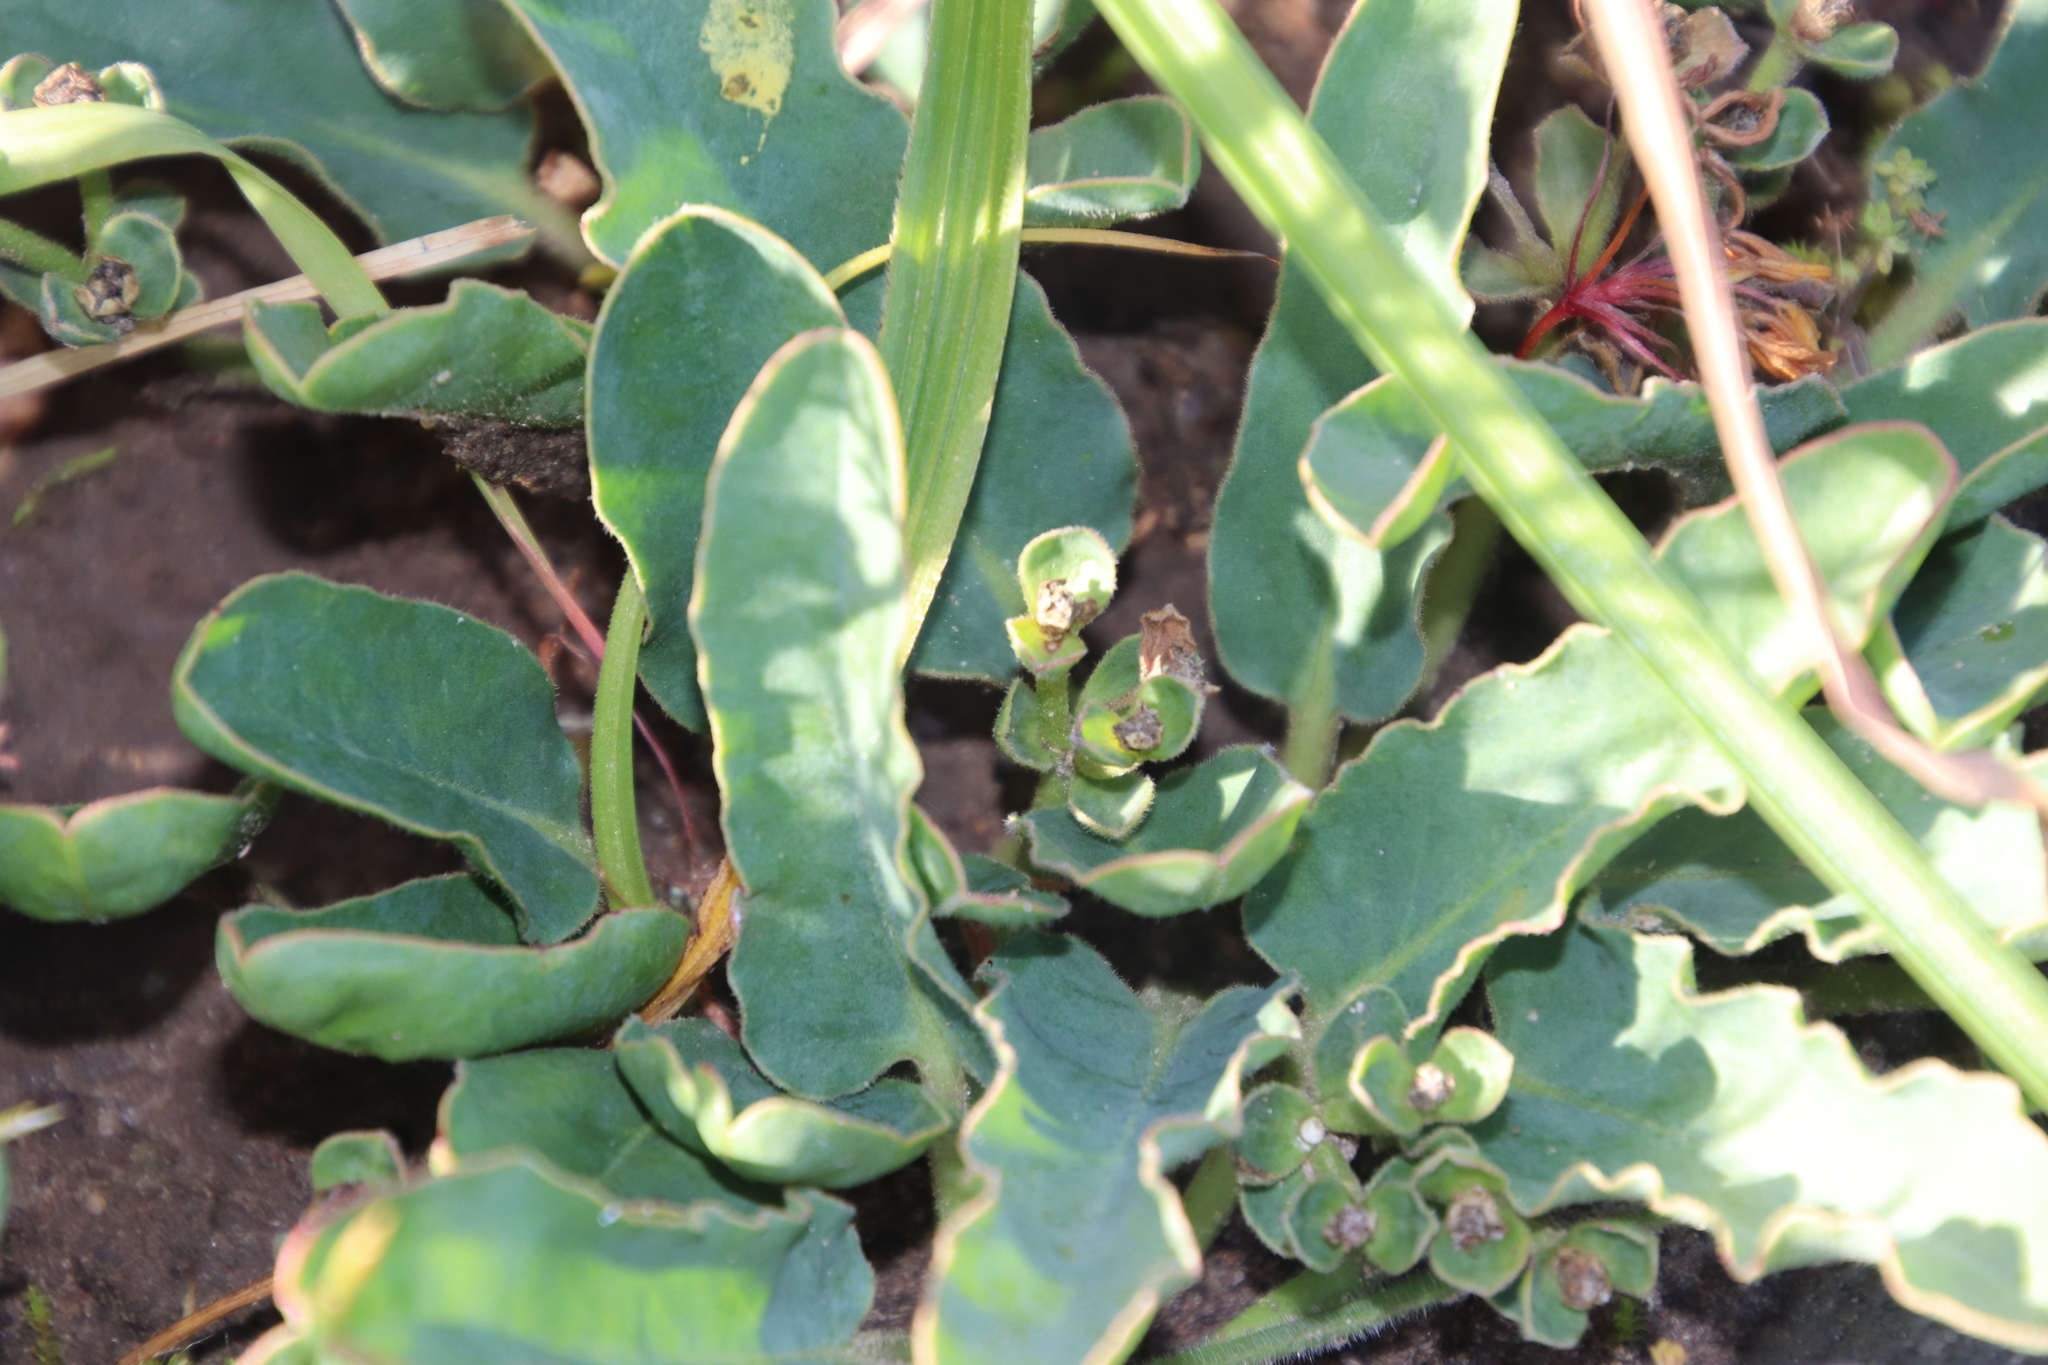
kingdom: Plantae
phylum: Tracheophyta
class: Magnoliopsida
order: Malpighiales
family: Euphorbiaceae
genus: Euphorbia
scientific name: Euphorbia tuberosa
